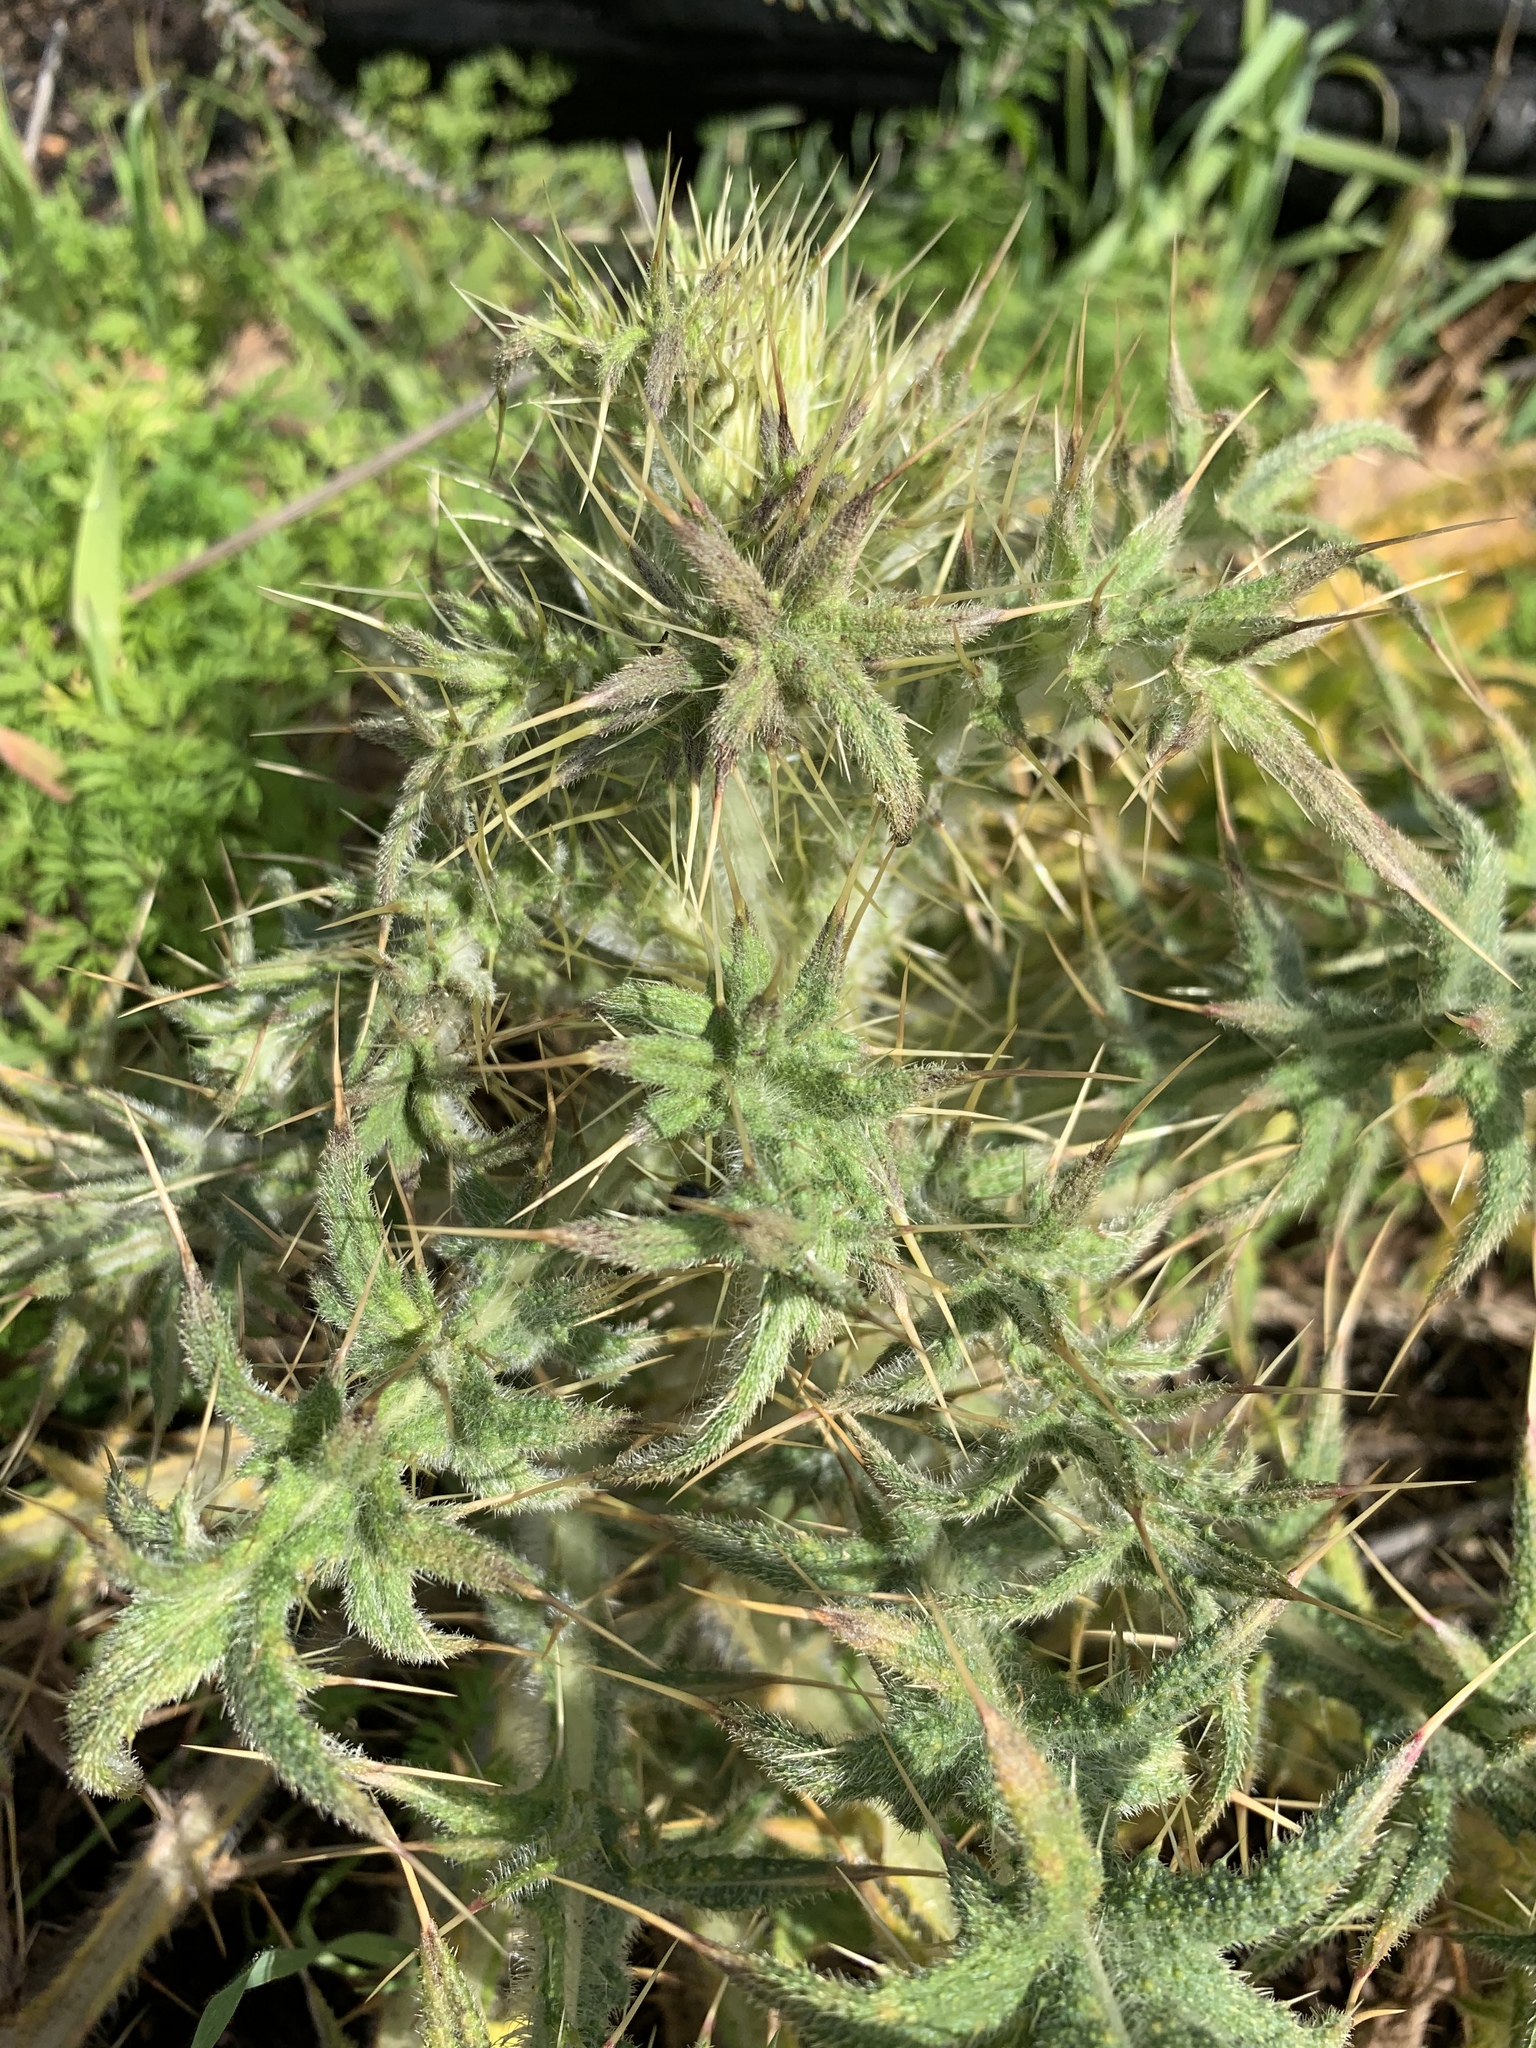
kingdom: Plantae
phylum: Tracheophyta
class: Magnoliopsida
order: Asterales
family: Asteraceae
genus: Cirsium
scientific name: Cirsium vulgare
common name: Bull thistle
